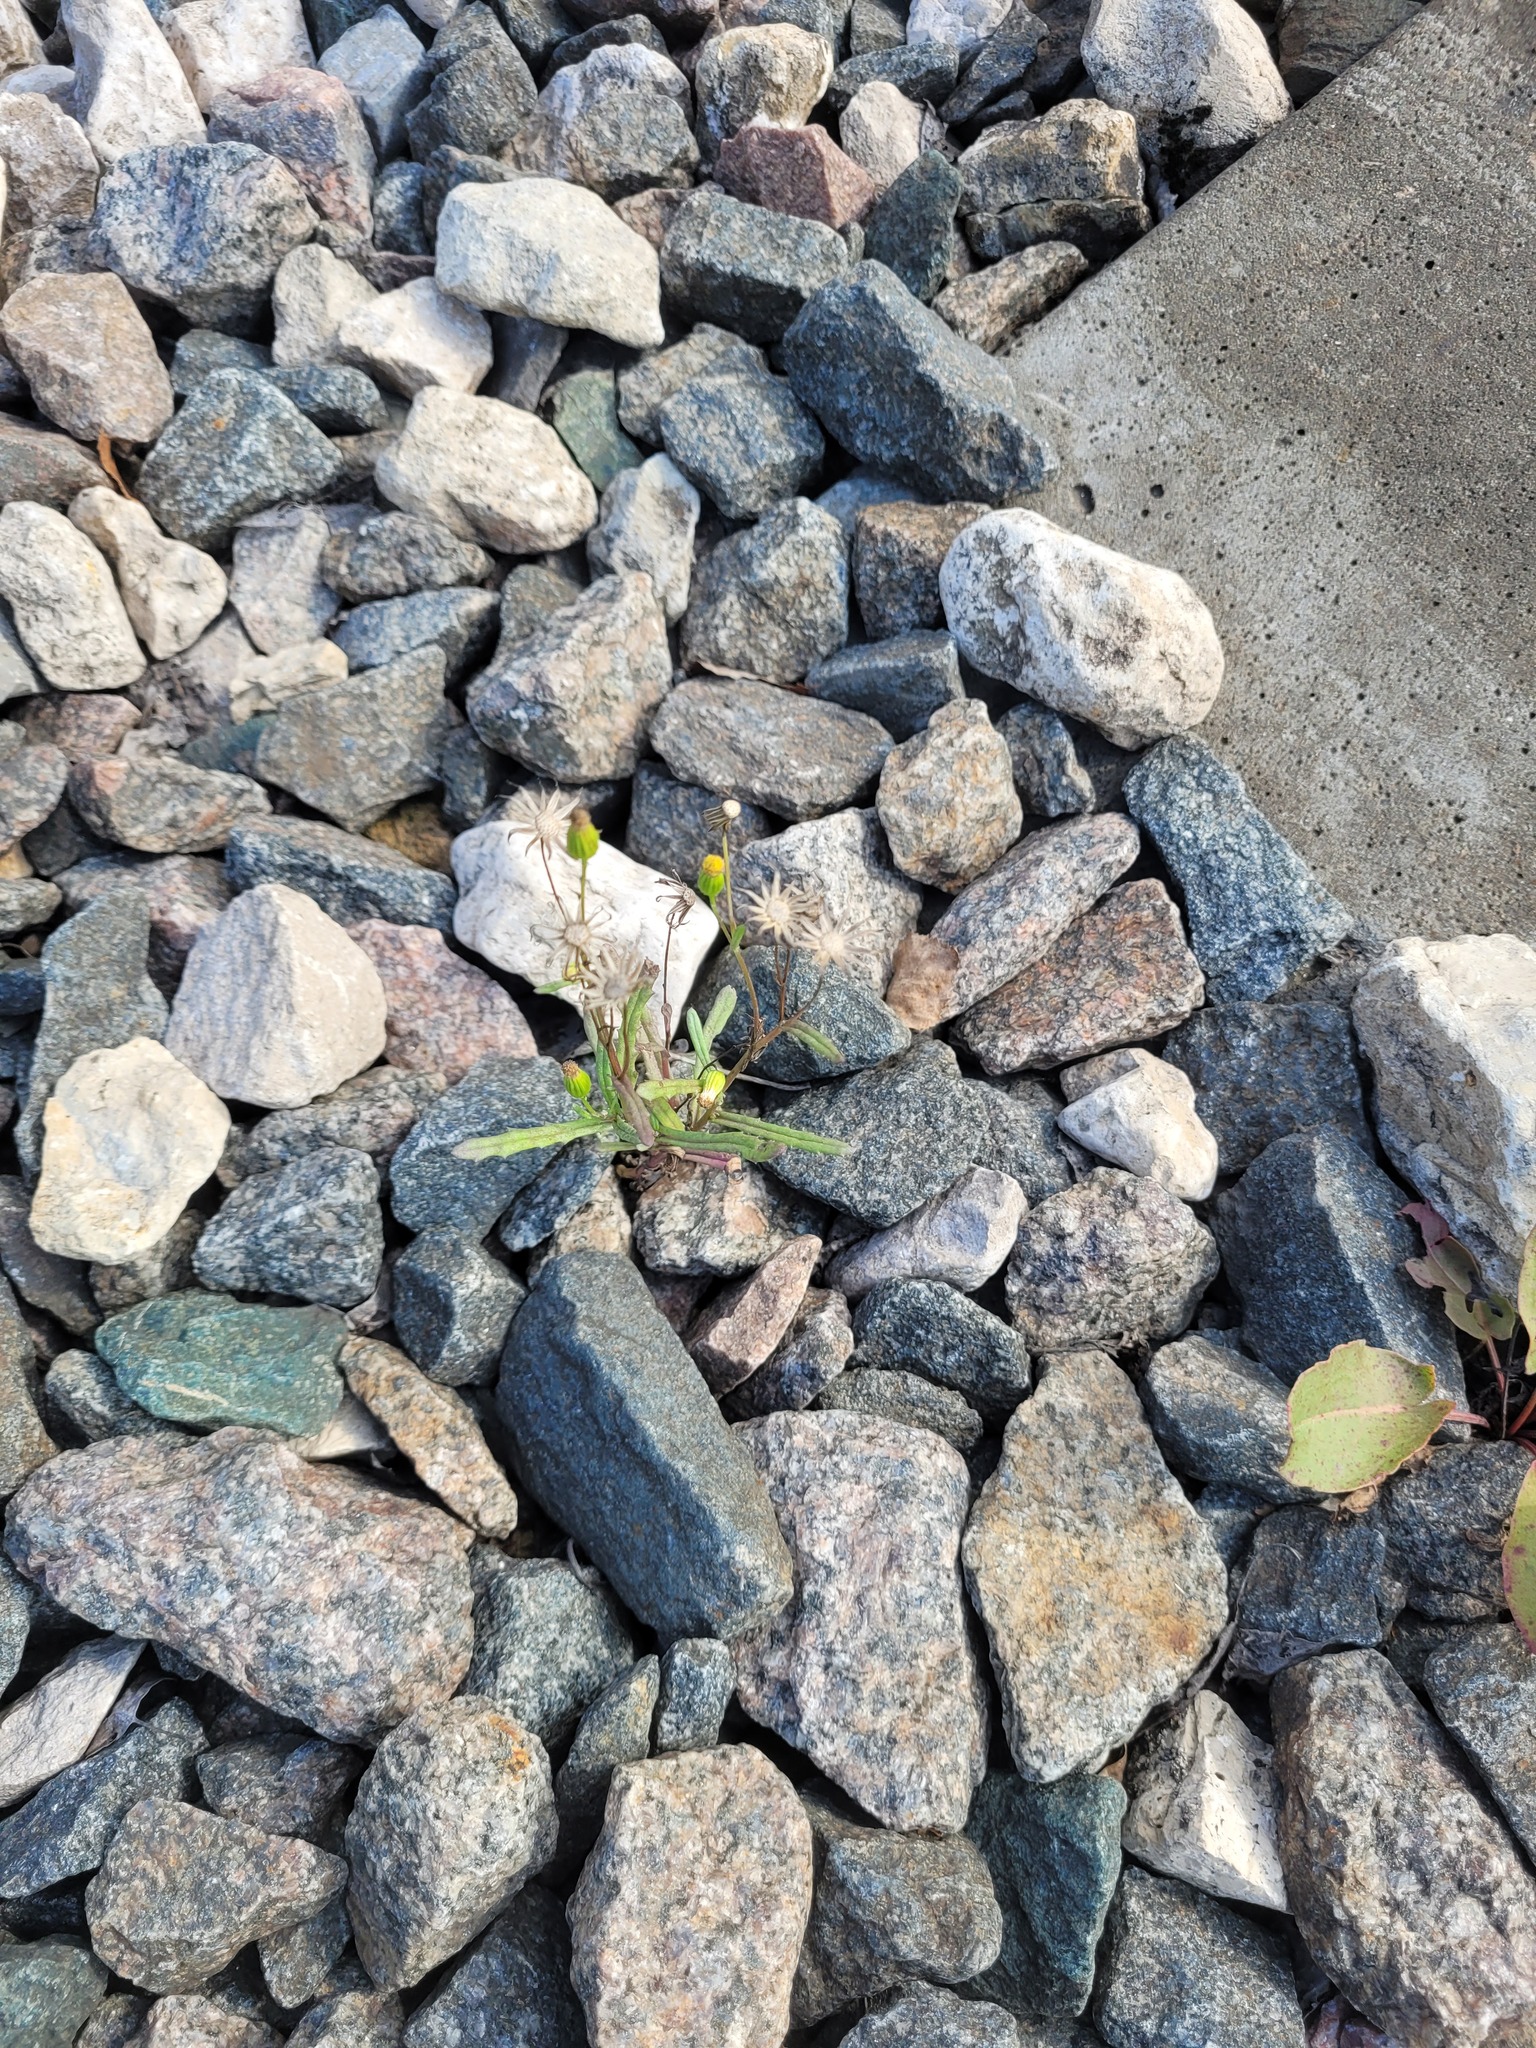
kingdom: Plantae
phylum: Tracheophyta
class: Magnoliopsida
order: Asterales
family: Asteraceae
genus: Senecio
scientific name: Senecio dubitabilis
